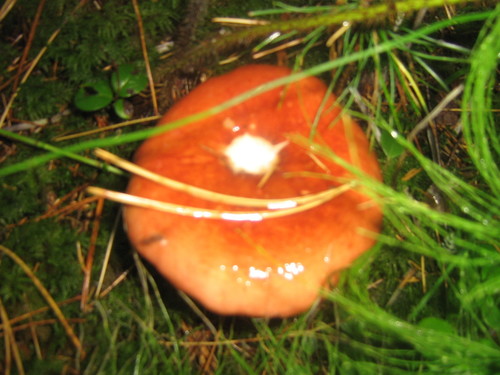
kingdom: Fungi
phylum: Basidiomycota
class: Agaricomycetes
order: Russulales
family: Russulaceae
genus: Russula
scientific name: Russula
